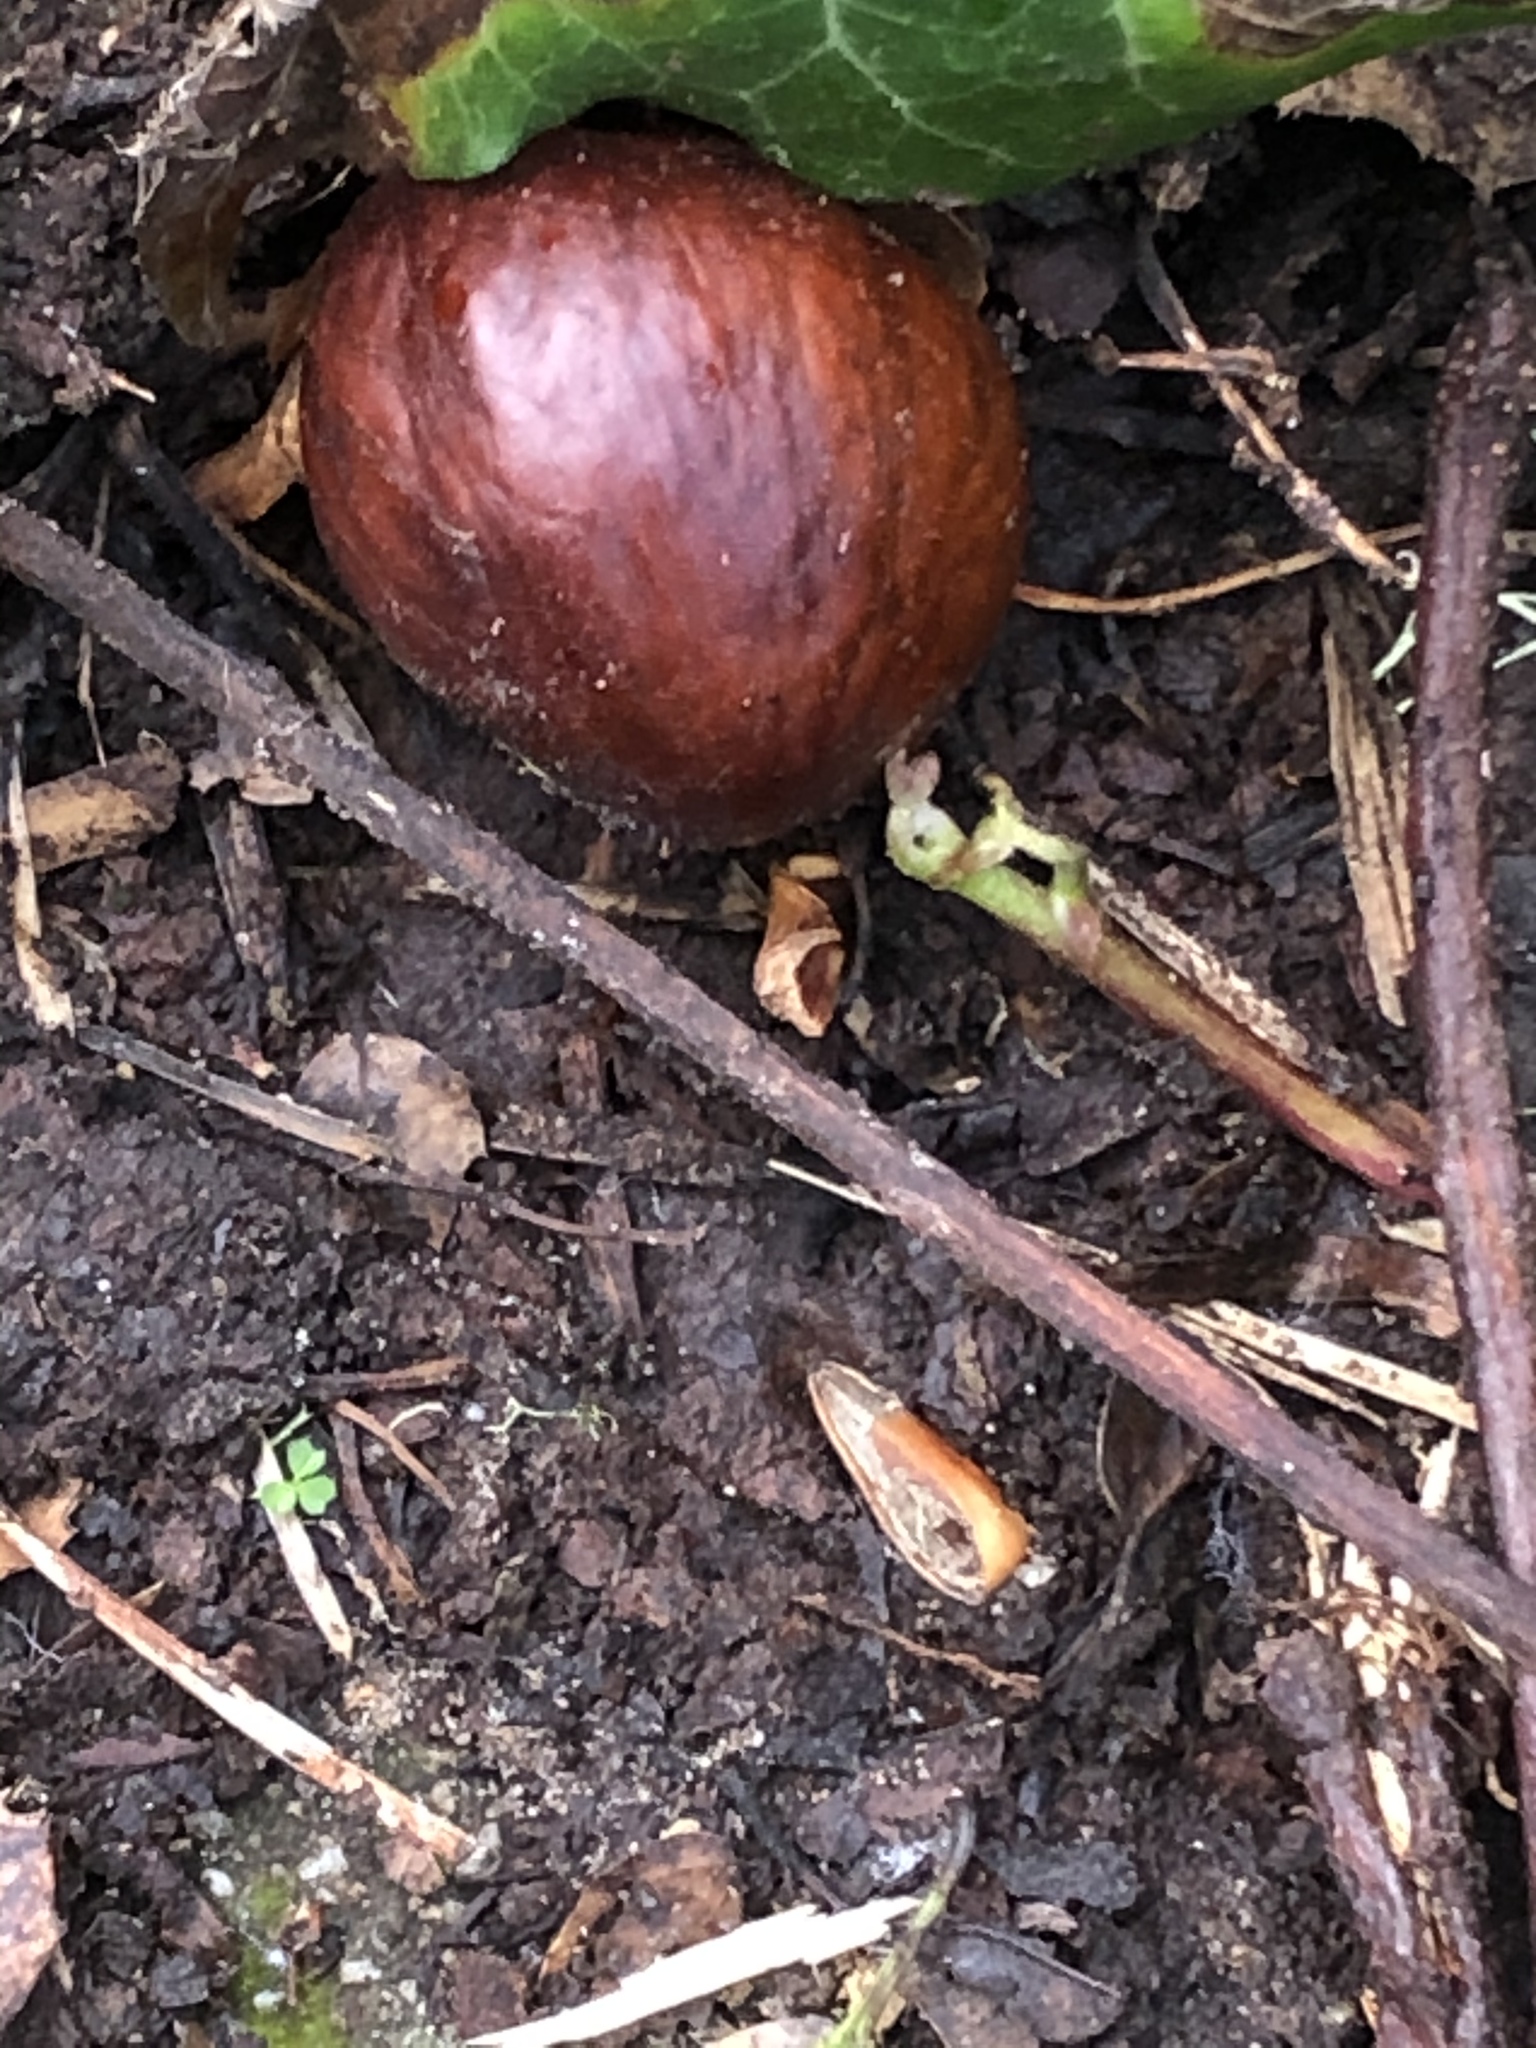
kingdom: Plantae
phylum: Tracheophyta
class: Magnoliopsida
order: Sapindales
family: Sapindaceae
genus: Aesculus
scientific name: Aesculus californica
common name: California buckeye
